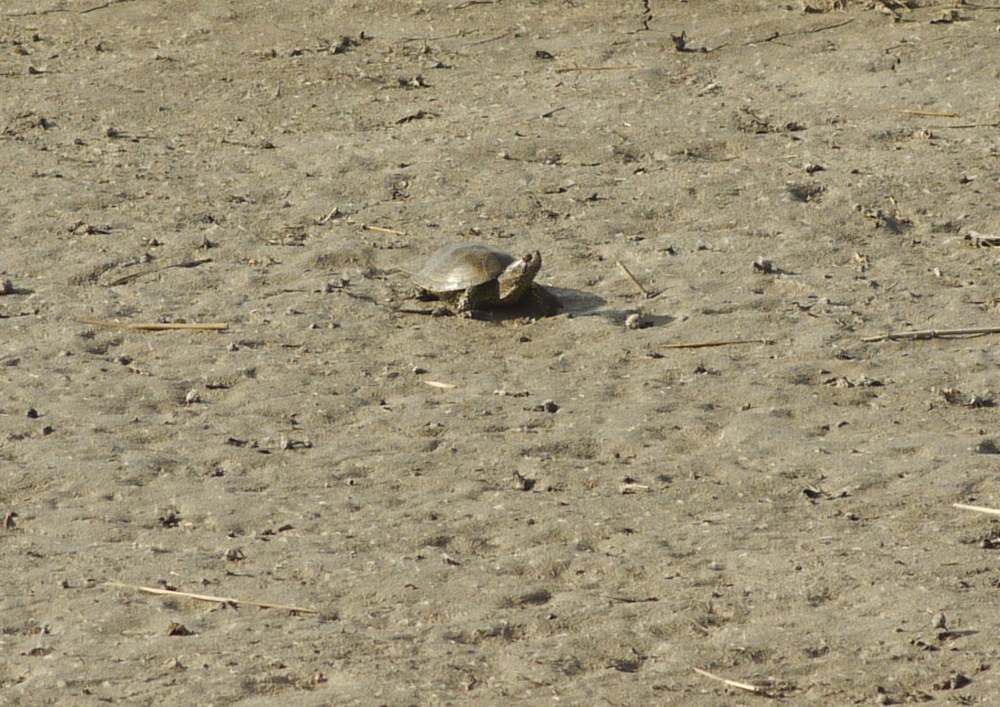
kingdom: Animalia
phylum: Chordata
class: Testudines
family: Emydidae
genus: Emys
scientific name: Emys orbicularis
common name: European pond turtle
